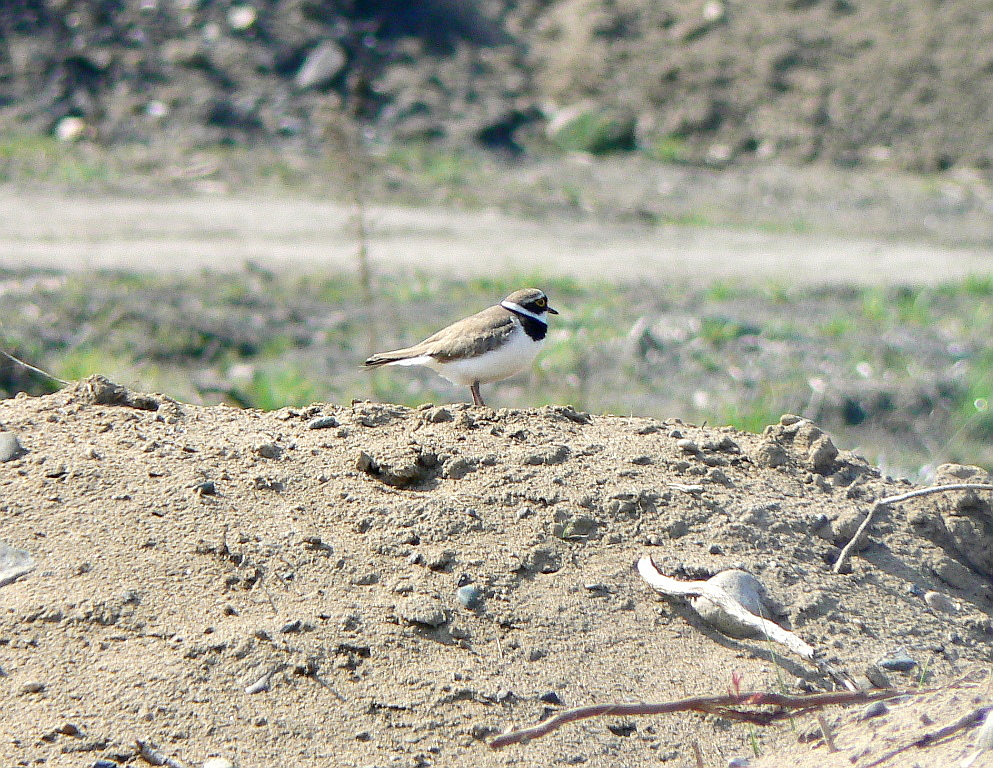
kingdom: Animalia
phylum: Chordata
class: Aves
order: Charadriiformes
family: Charadriidae
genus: Charadrius
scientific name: Charadrius dubius
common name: Little ringed plover
